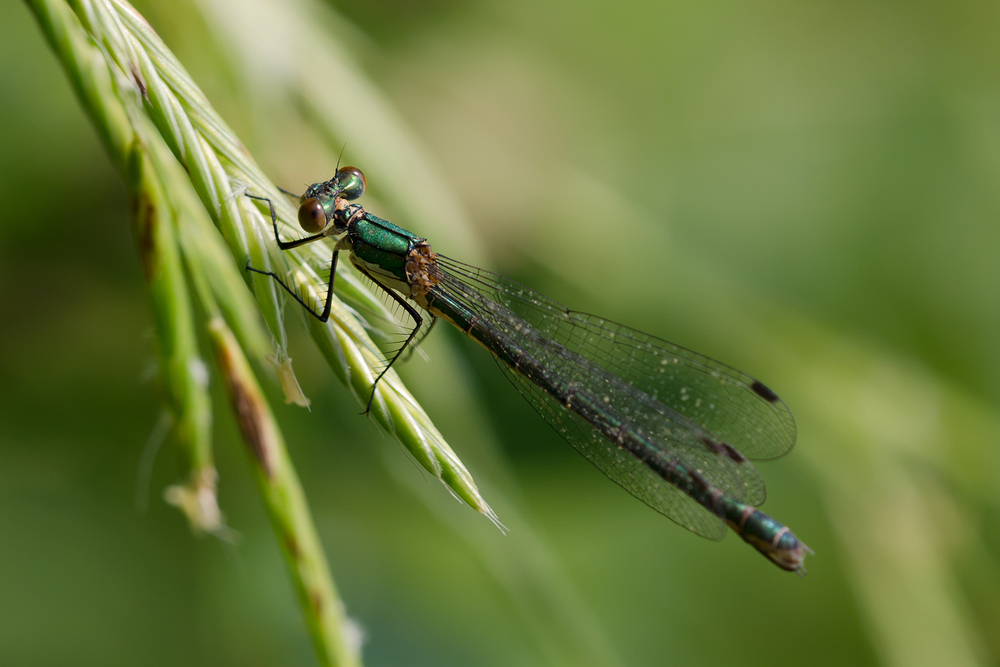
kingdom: Animalia
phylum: Arthropoda
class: Insecta
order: Odonata
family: Lestidae
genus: Lestes
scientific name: Lestes dryas
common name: Scarce emerald damselfly
